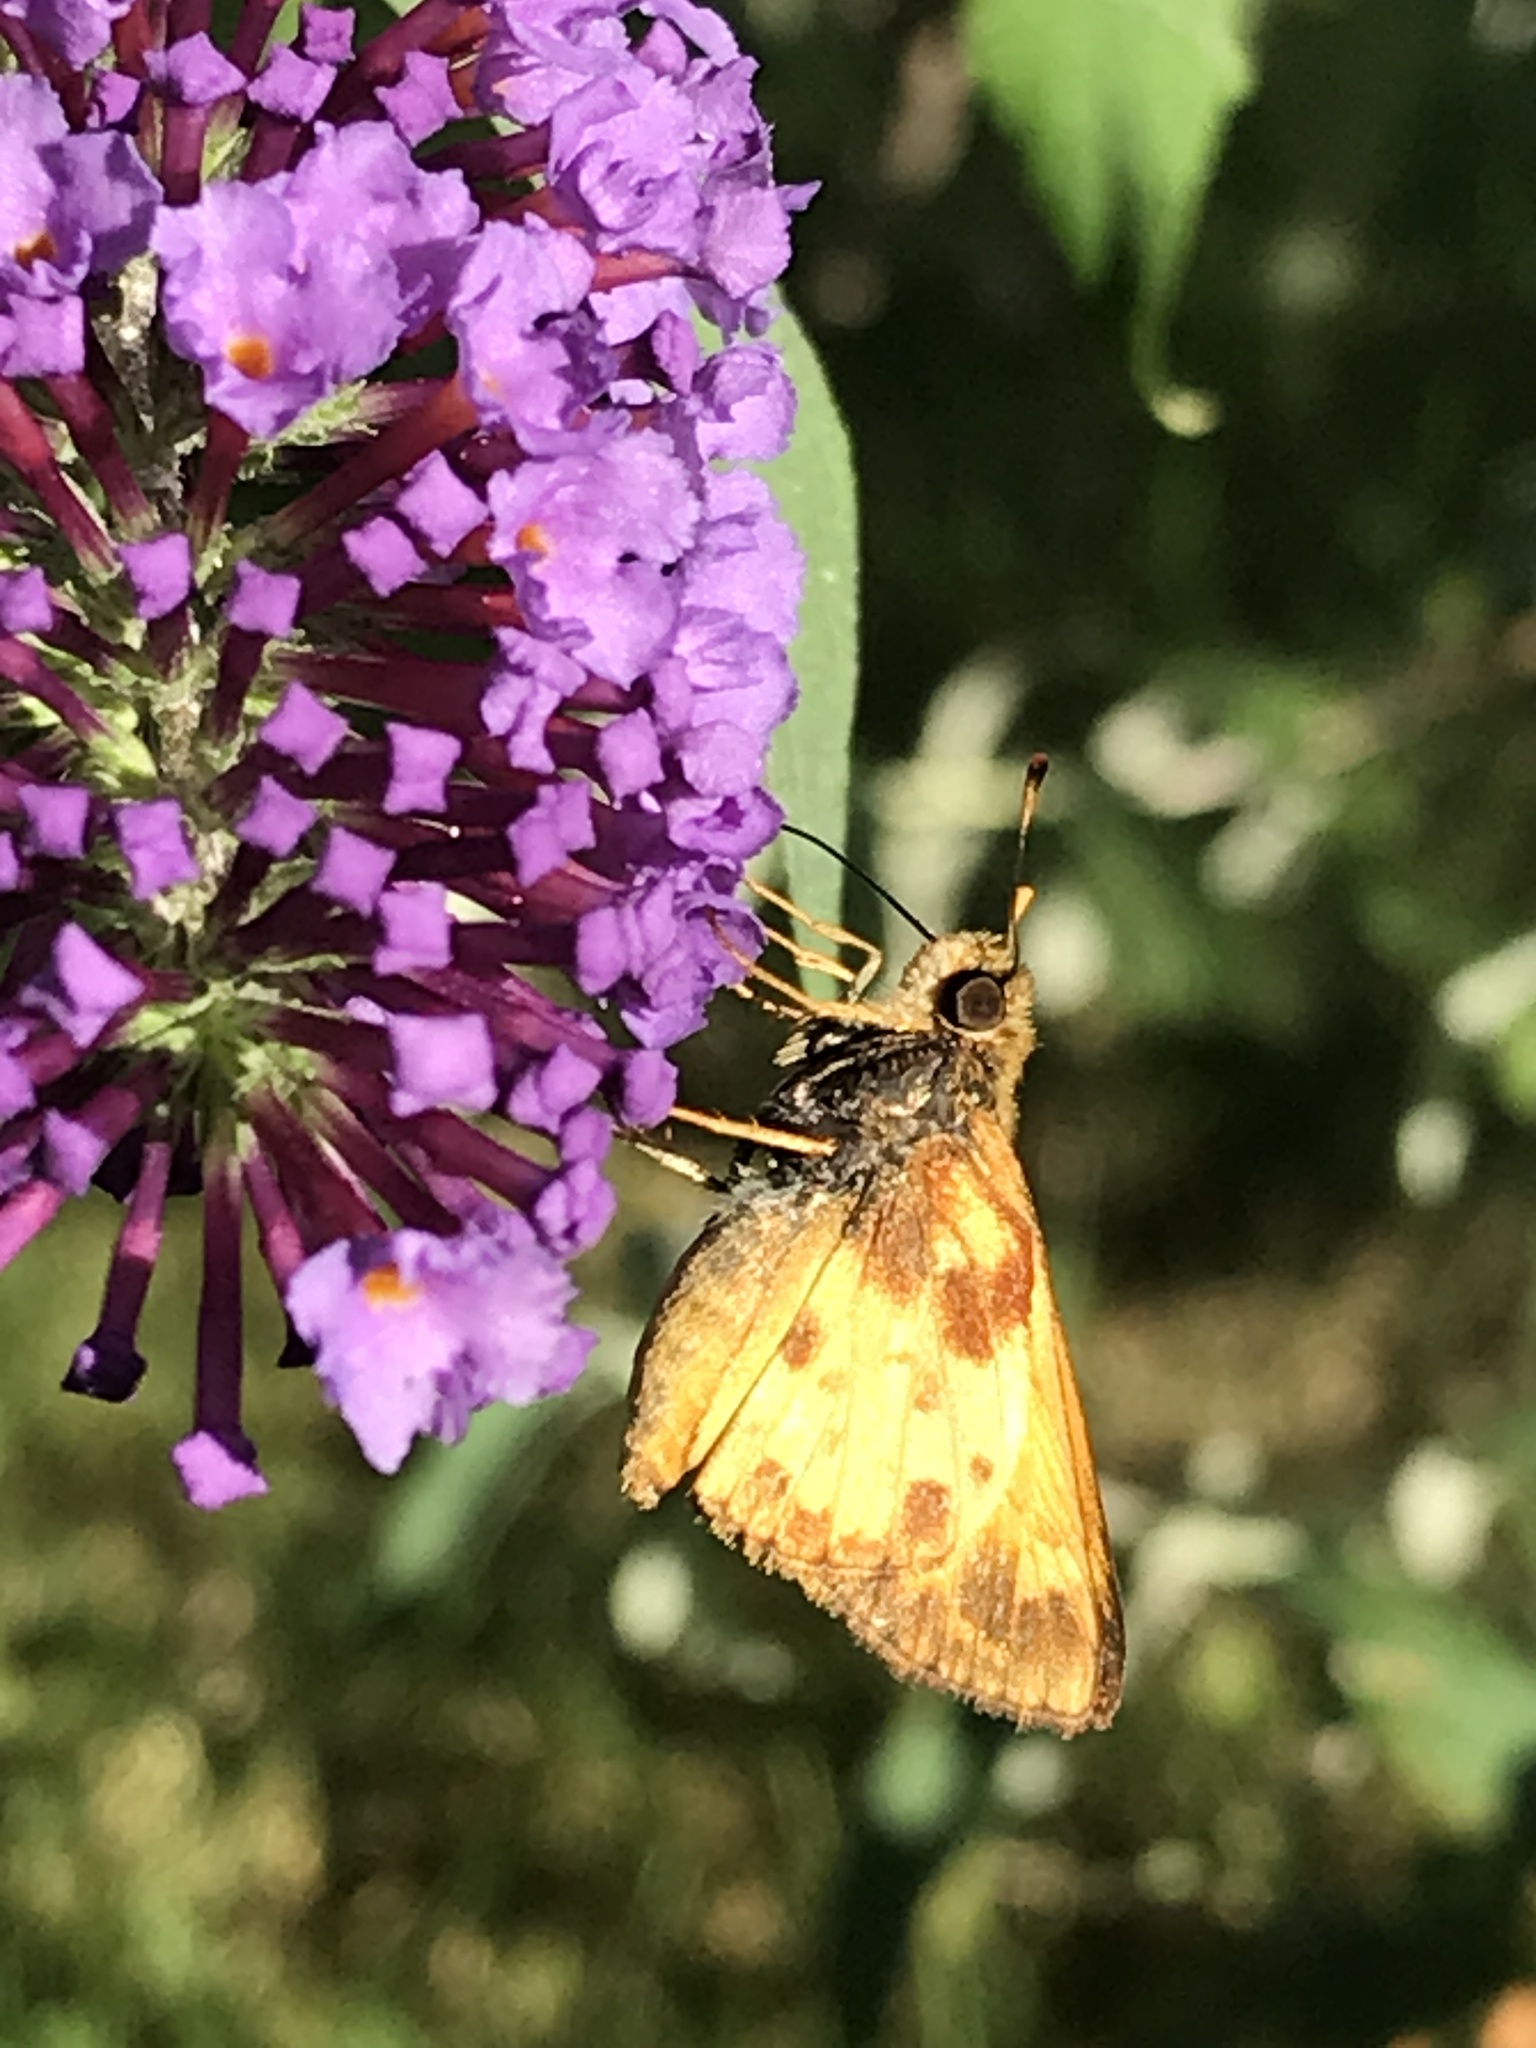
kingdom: Animalia
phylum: Arthropoda
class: Insecta
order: Lepidoptera
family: Hesperiidae
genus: Lon
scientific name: Lon zabulon
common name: Zabulon skipper
